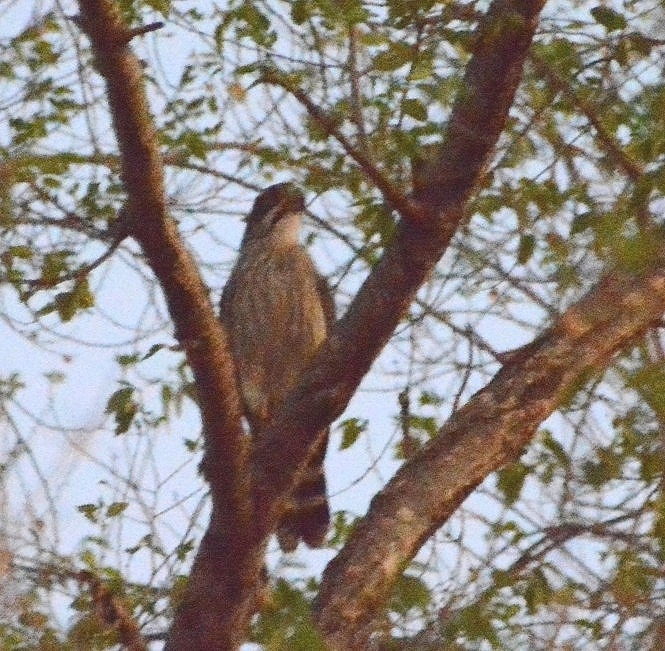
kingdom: Animalia
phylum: Chordata
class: Aves
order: Falconiformes
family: Falconidae
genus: Spiziapteryx
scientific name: Spiziapteryx circumcincta
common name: Spot-winged falconet
